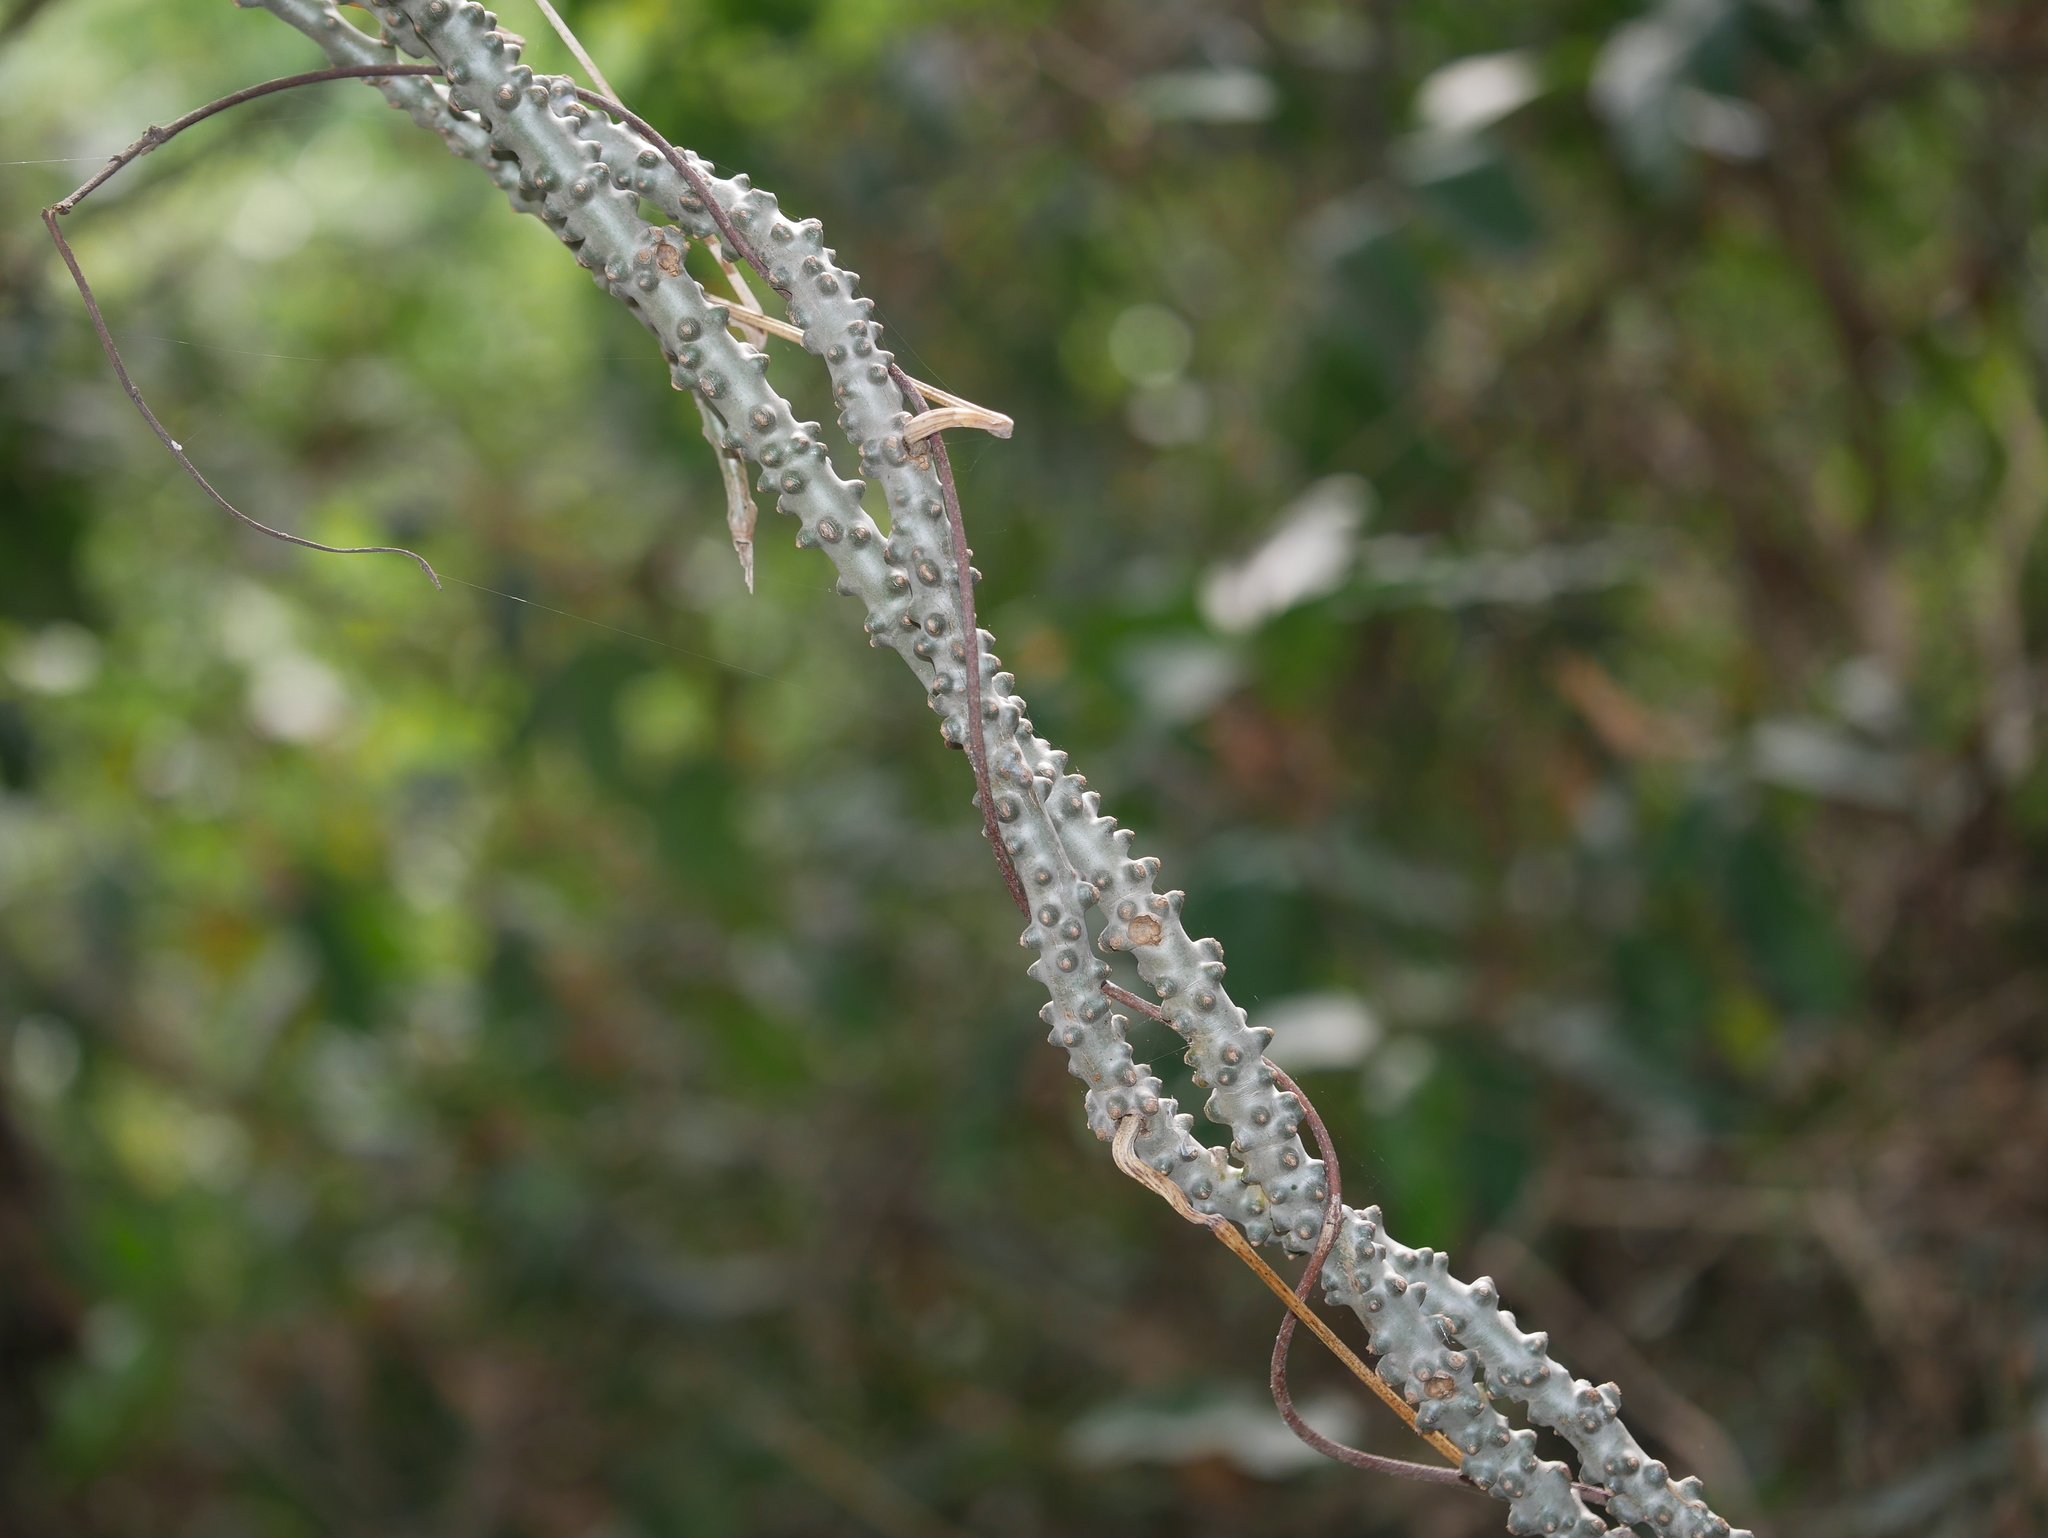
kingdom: Plantae
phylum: Tracheophyta
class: Magnoliopsida
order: Ranunculales
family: Menispermaceae
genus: Tinospora
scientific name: Tinospora crispa
